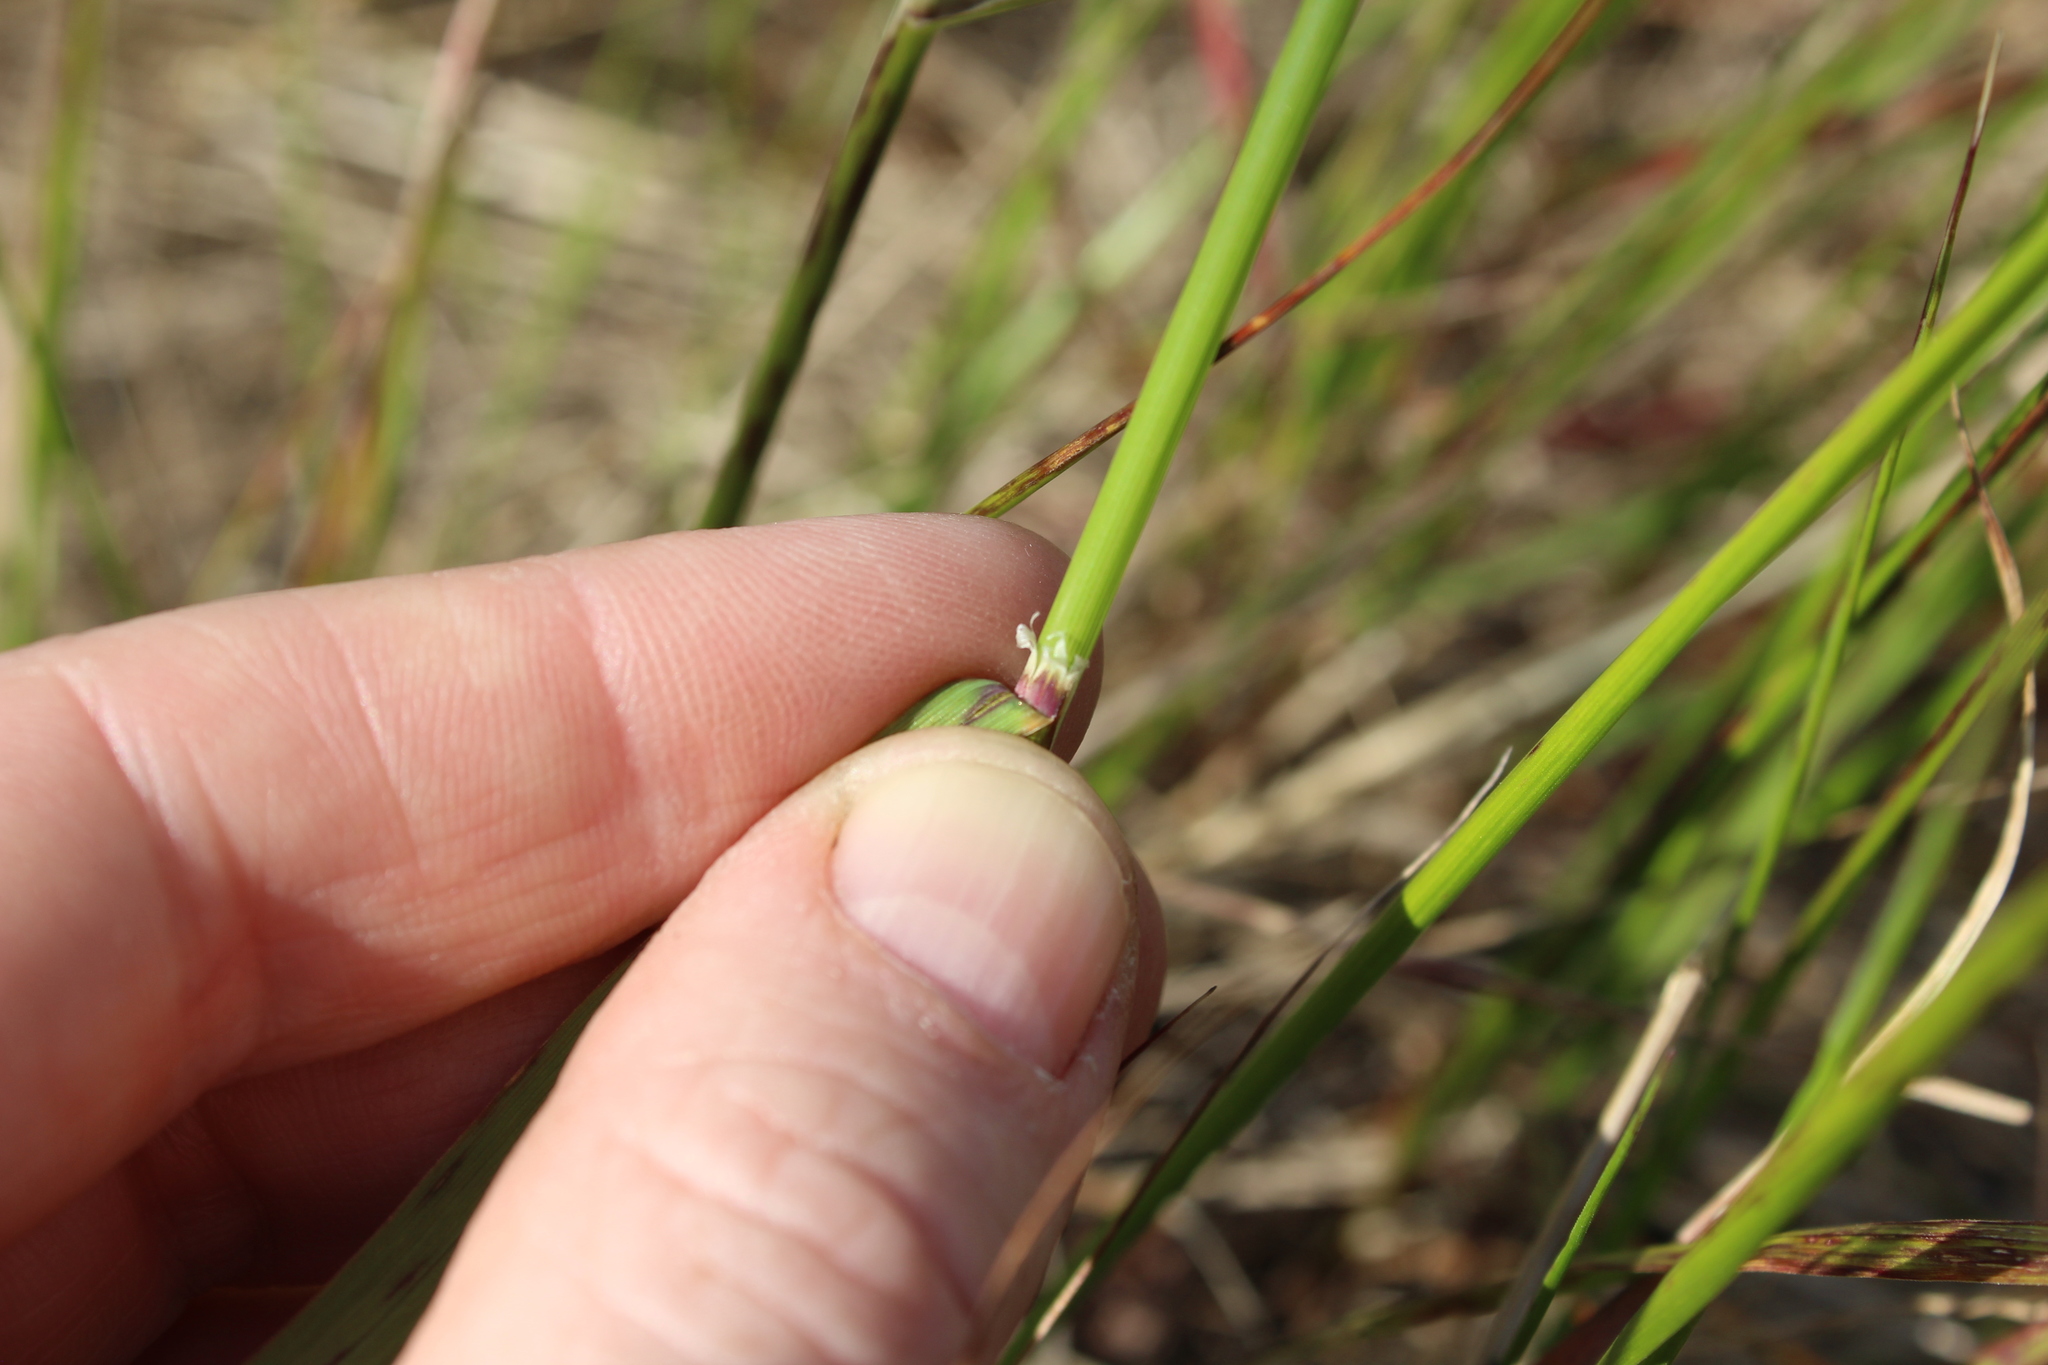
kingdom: Plantae
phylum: Tracheophyta
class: Liliopsida
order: Poales
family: Poaceae
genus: Calamagrostis
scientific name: Calamagrostis lapponica
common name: Lapland reedgrass
